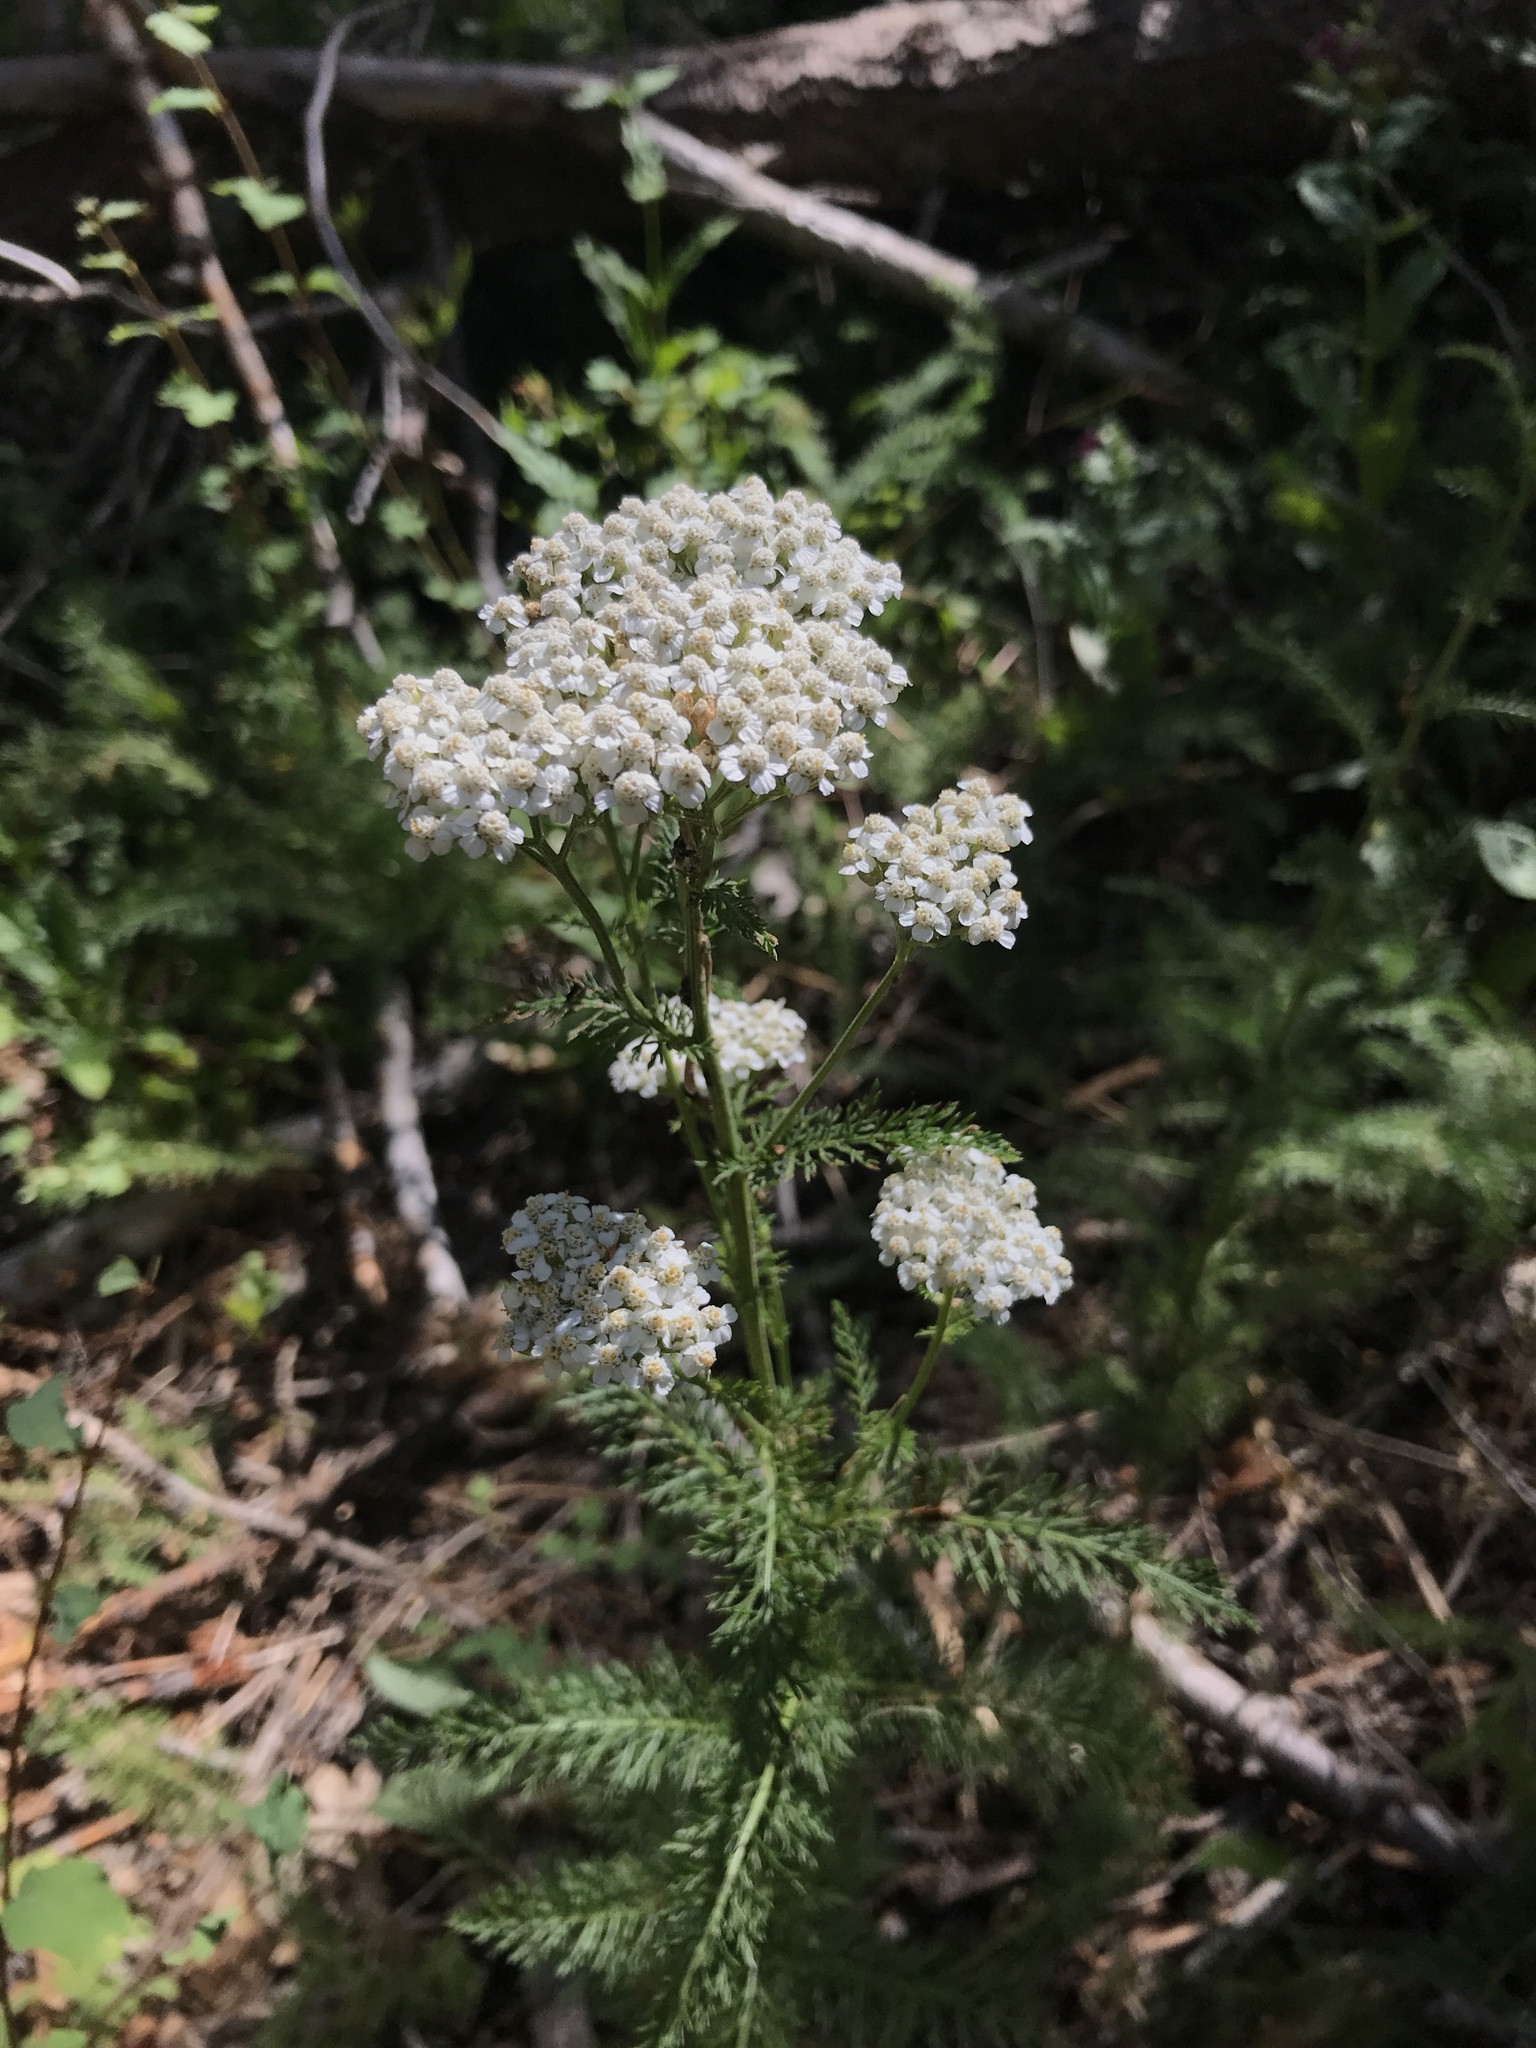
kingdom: Plantae
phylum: Tracheophyta
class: Magnoliopsida
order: Asterales
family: Asteraceae
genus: Achillea
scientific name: Achillea millefolium
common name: Yarrow
